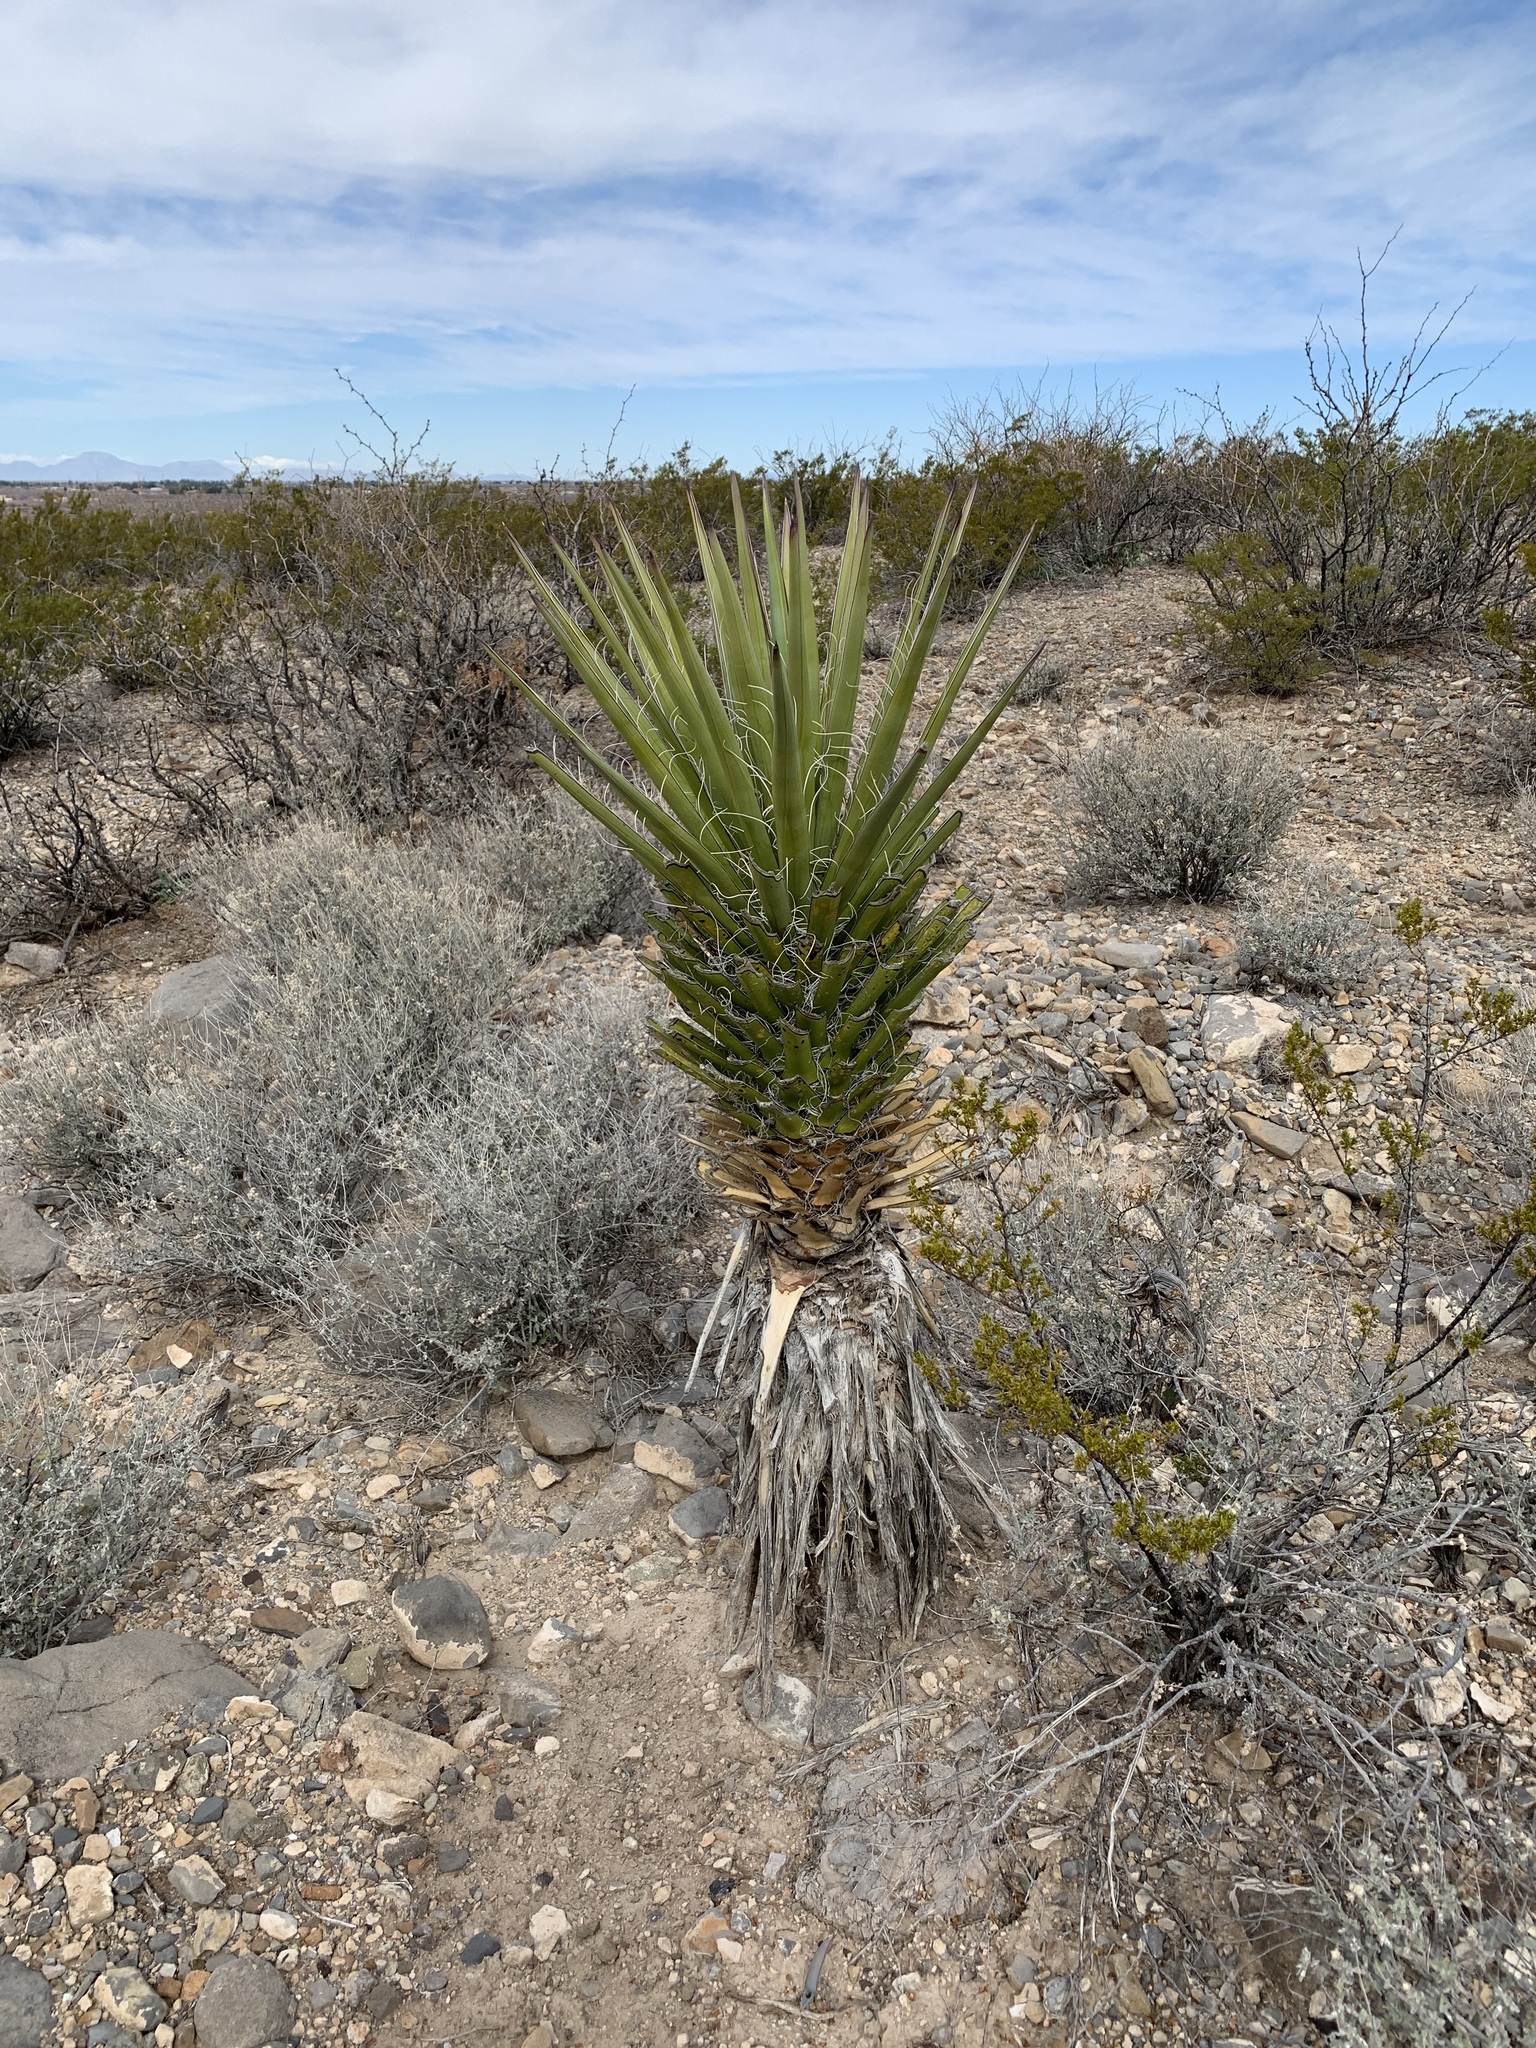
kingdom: Plantae
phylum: Tracheophyta
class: Liliopsida
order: Asparagales
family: Asparagaceae
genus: Yucca
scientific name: Yucca treculiana
